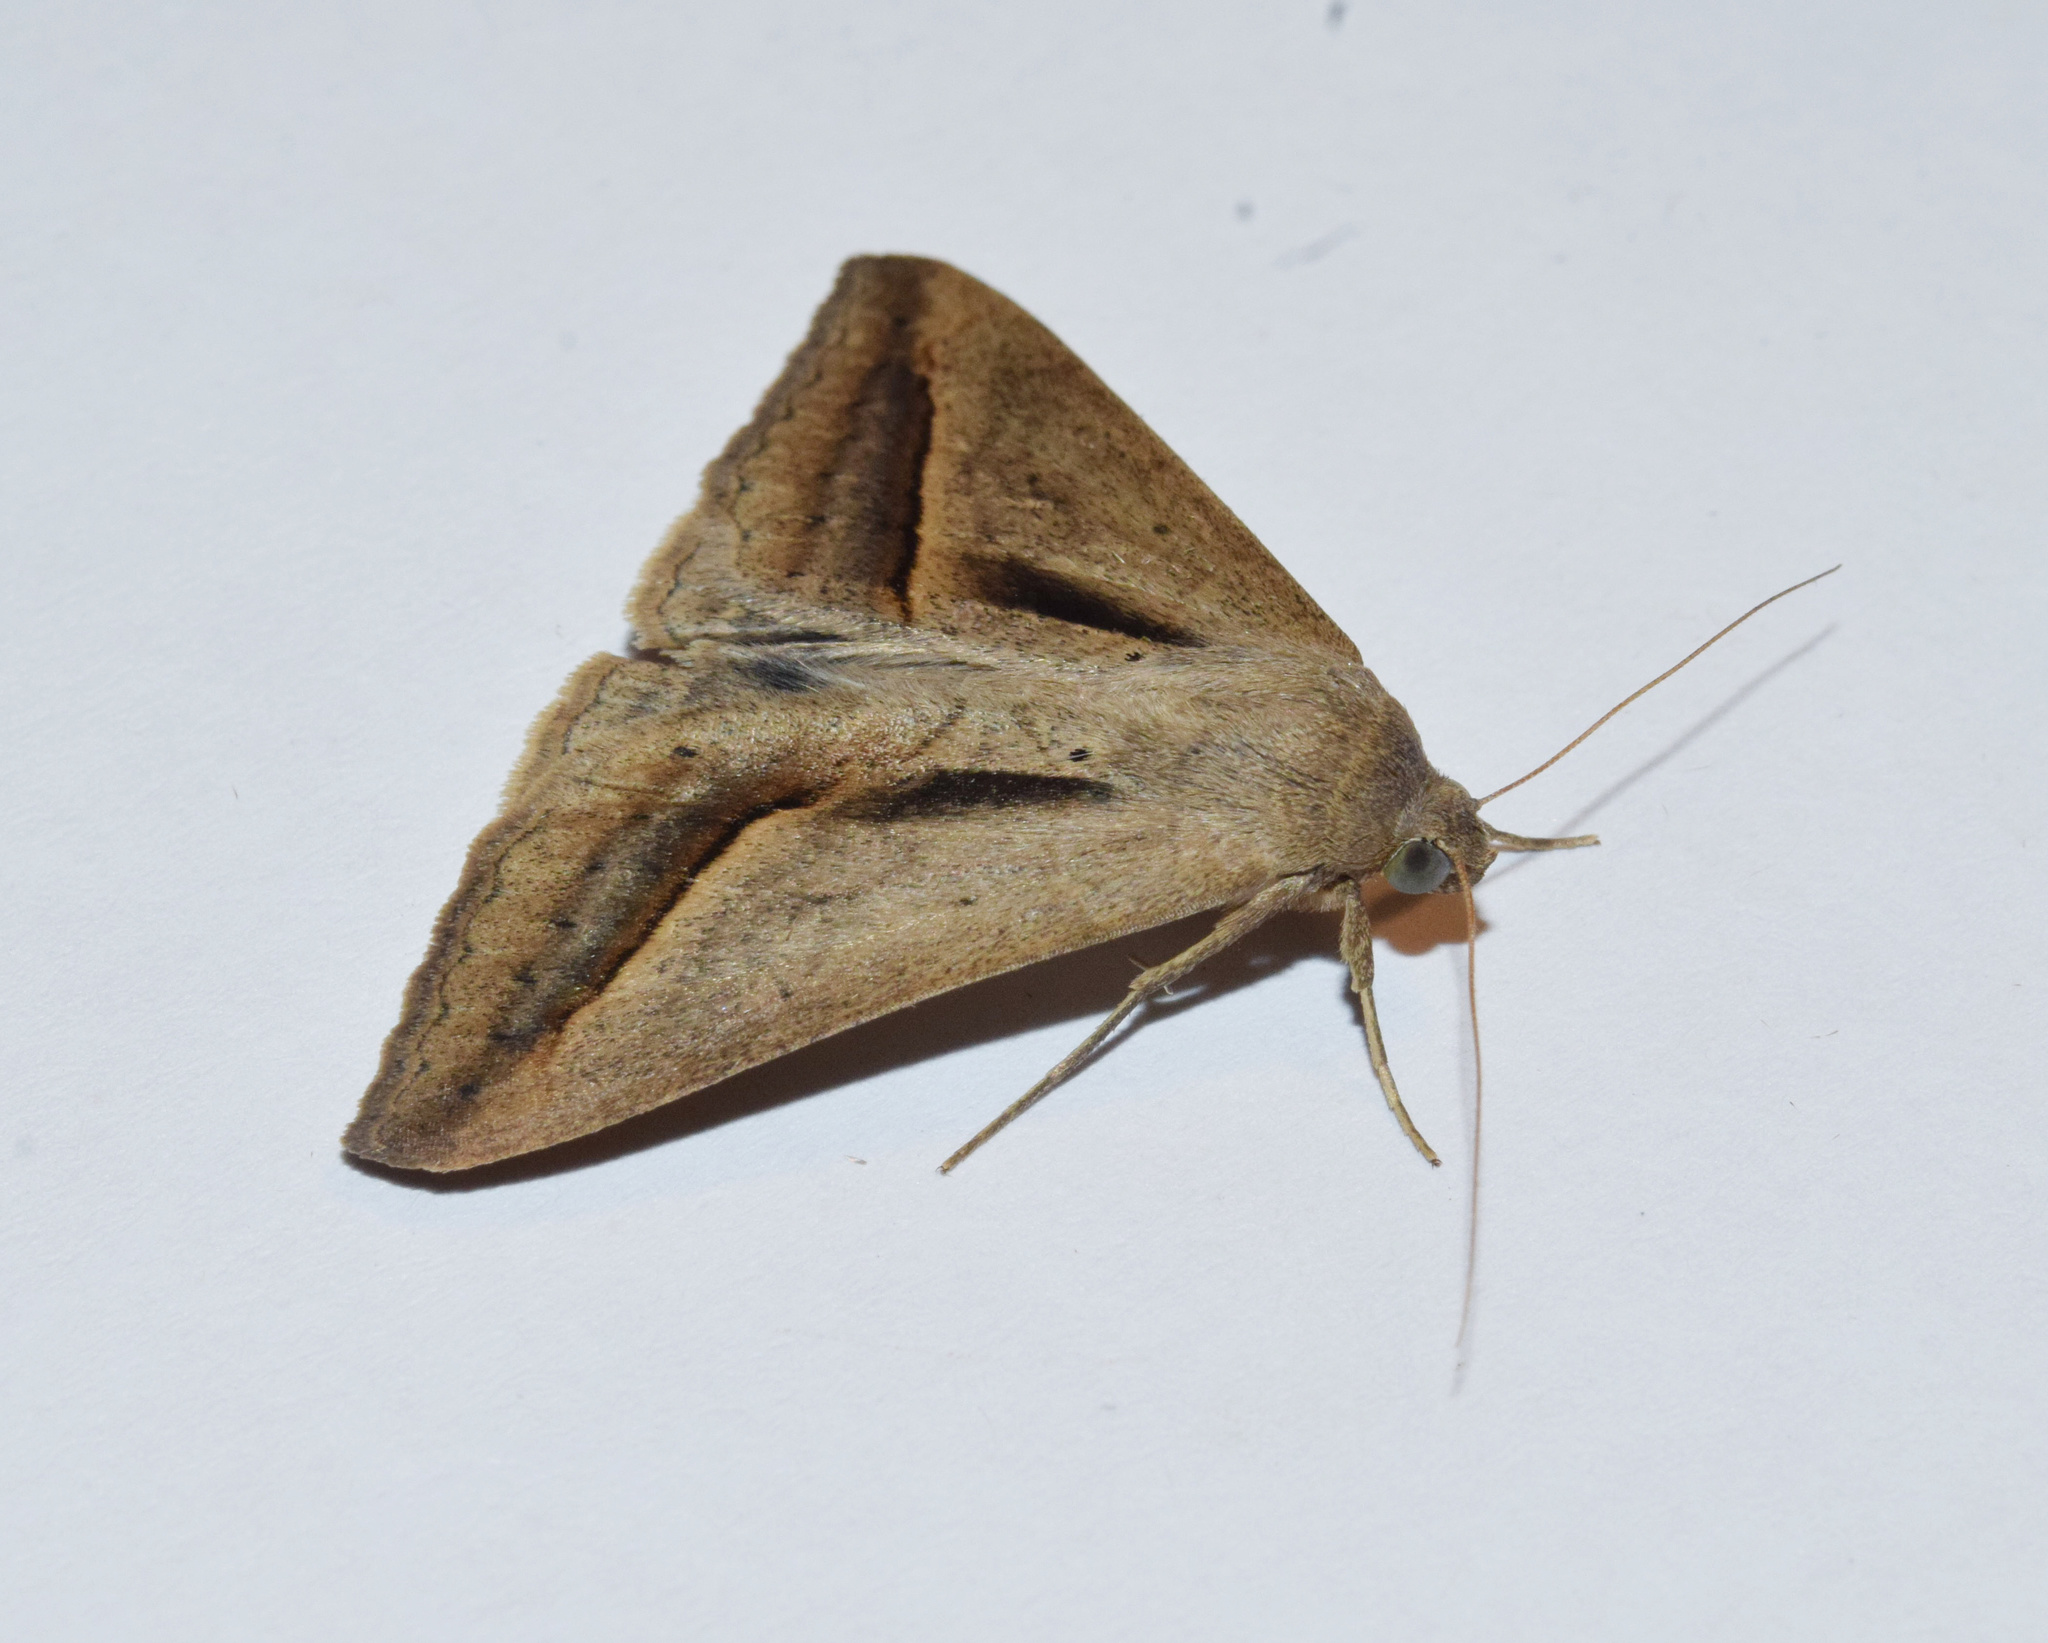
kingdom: Animalia
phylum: Arthropoda
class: Insecta
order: Lepidoptera
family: Erebidae
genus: Mocis
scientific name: Mocis proverai
